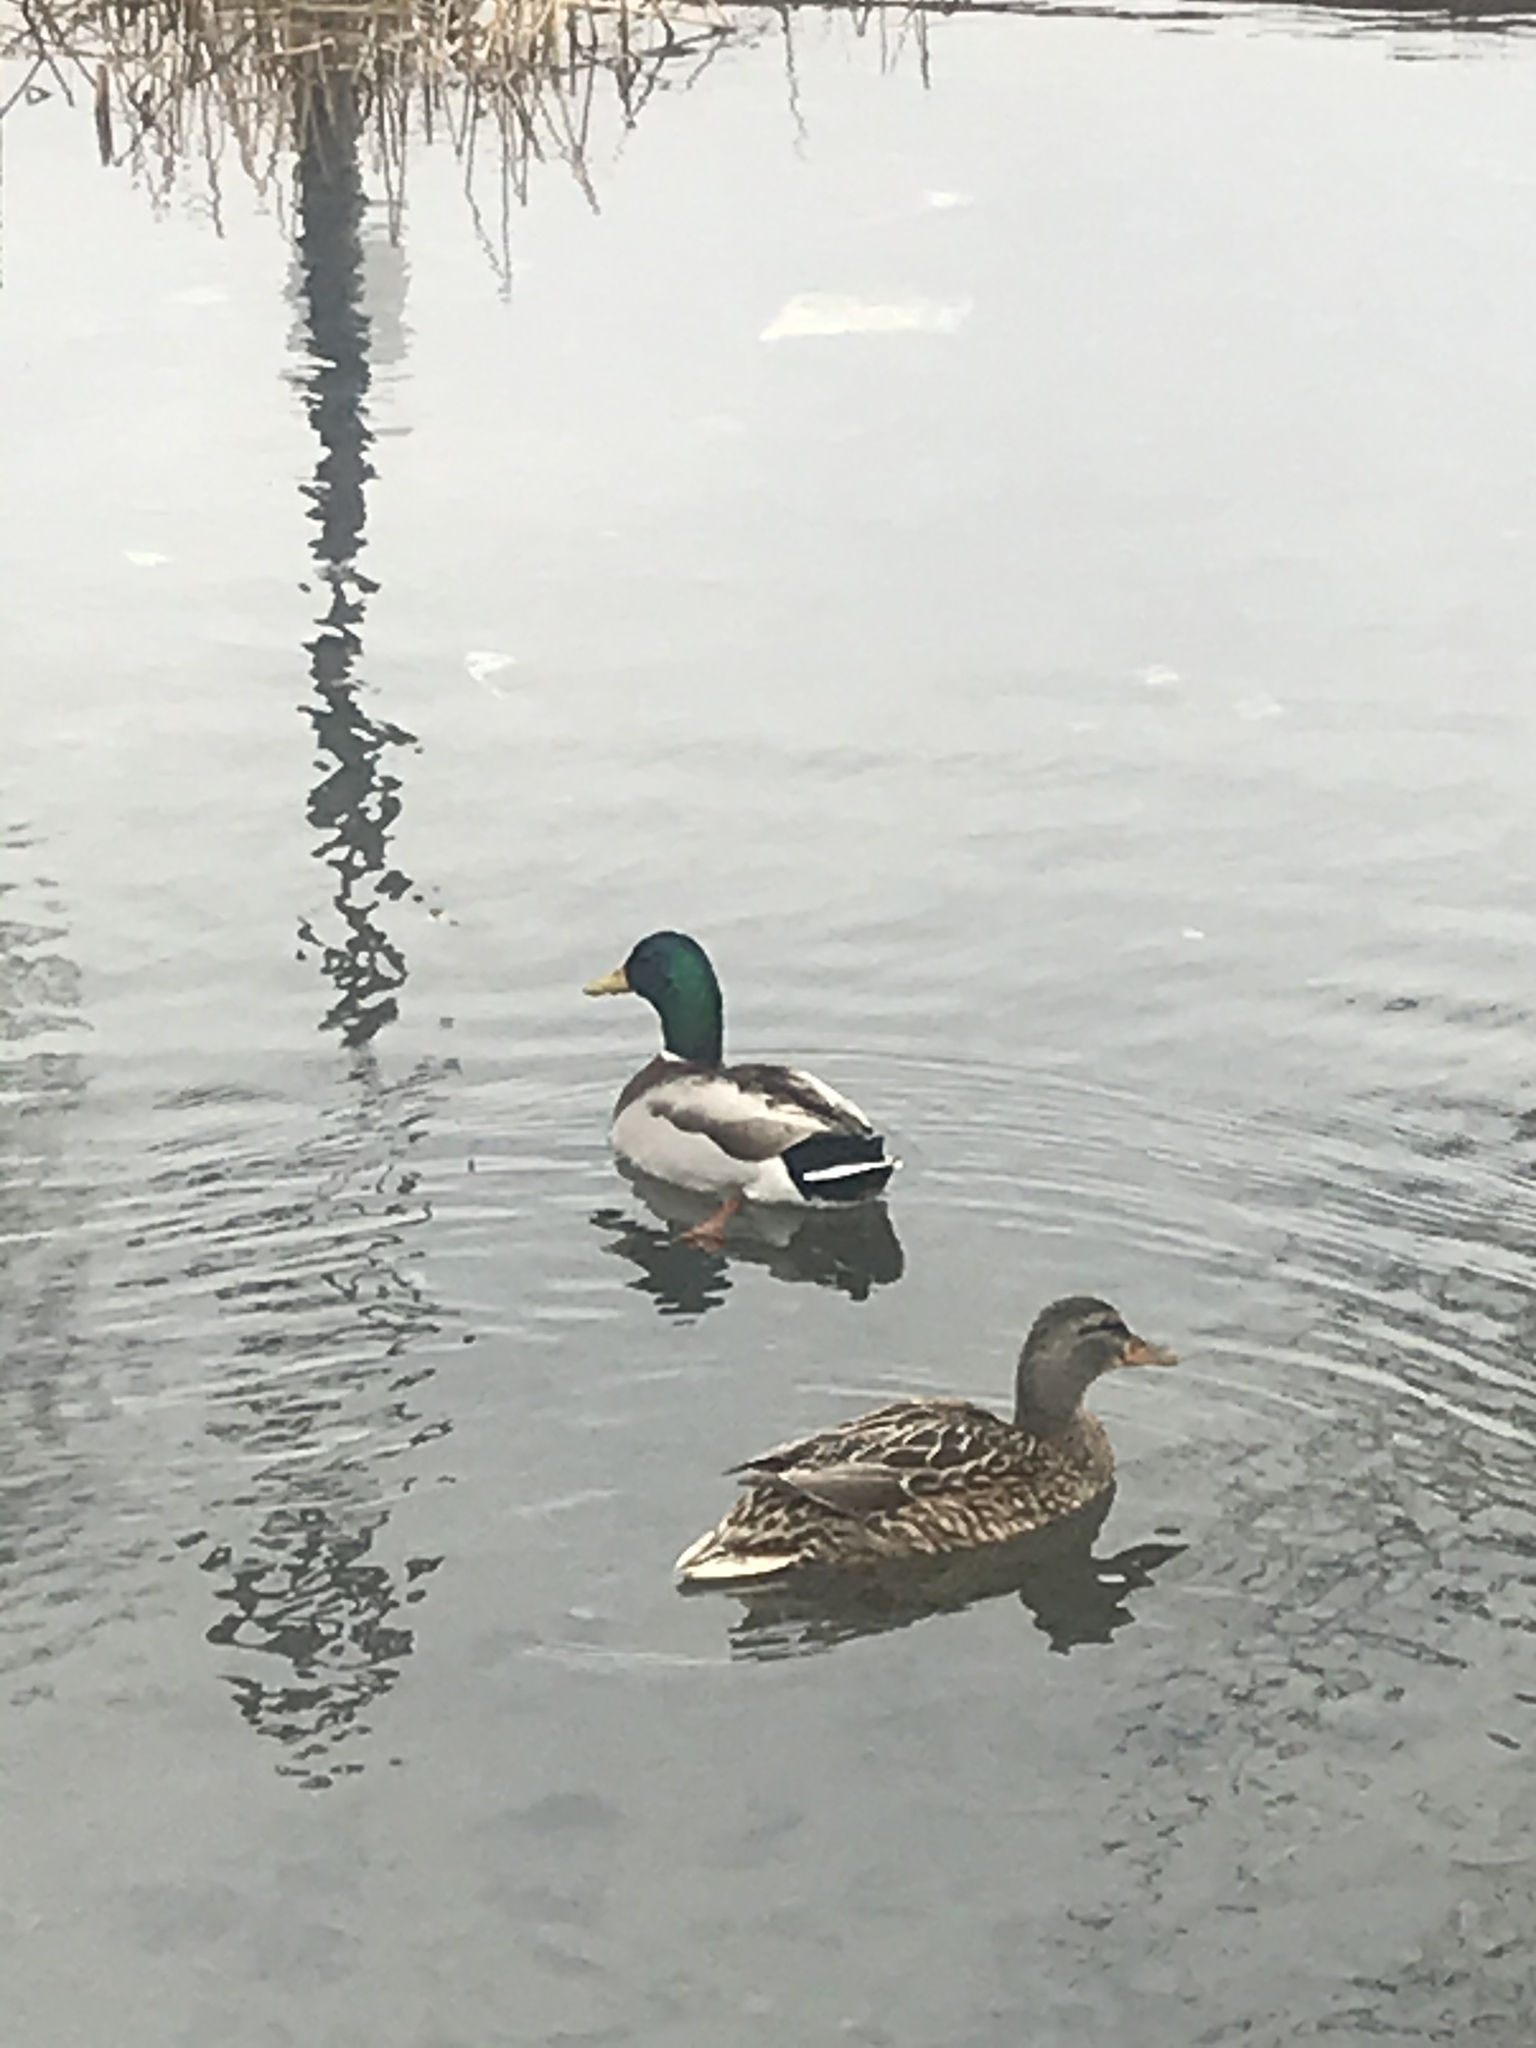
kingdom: Animalia
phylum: Chordata
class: Aves
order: Anseriformes
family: Anatidae
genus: Anas
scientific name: Anas platyrhynchos
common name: Mallard
